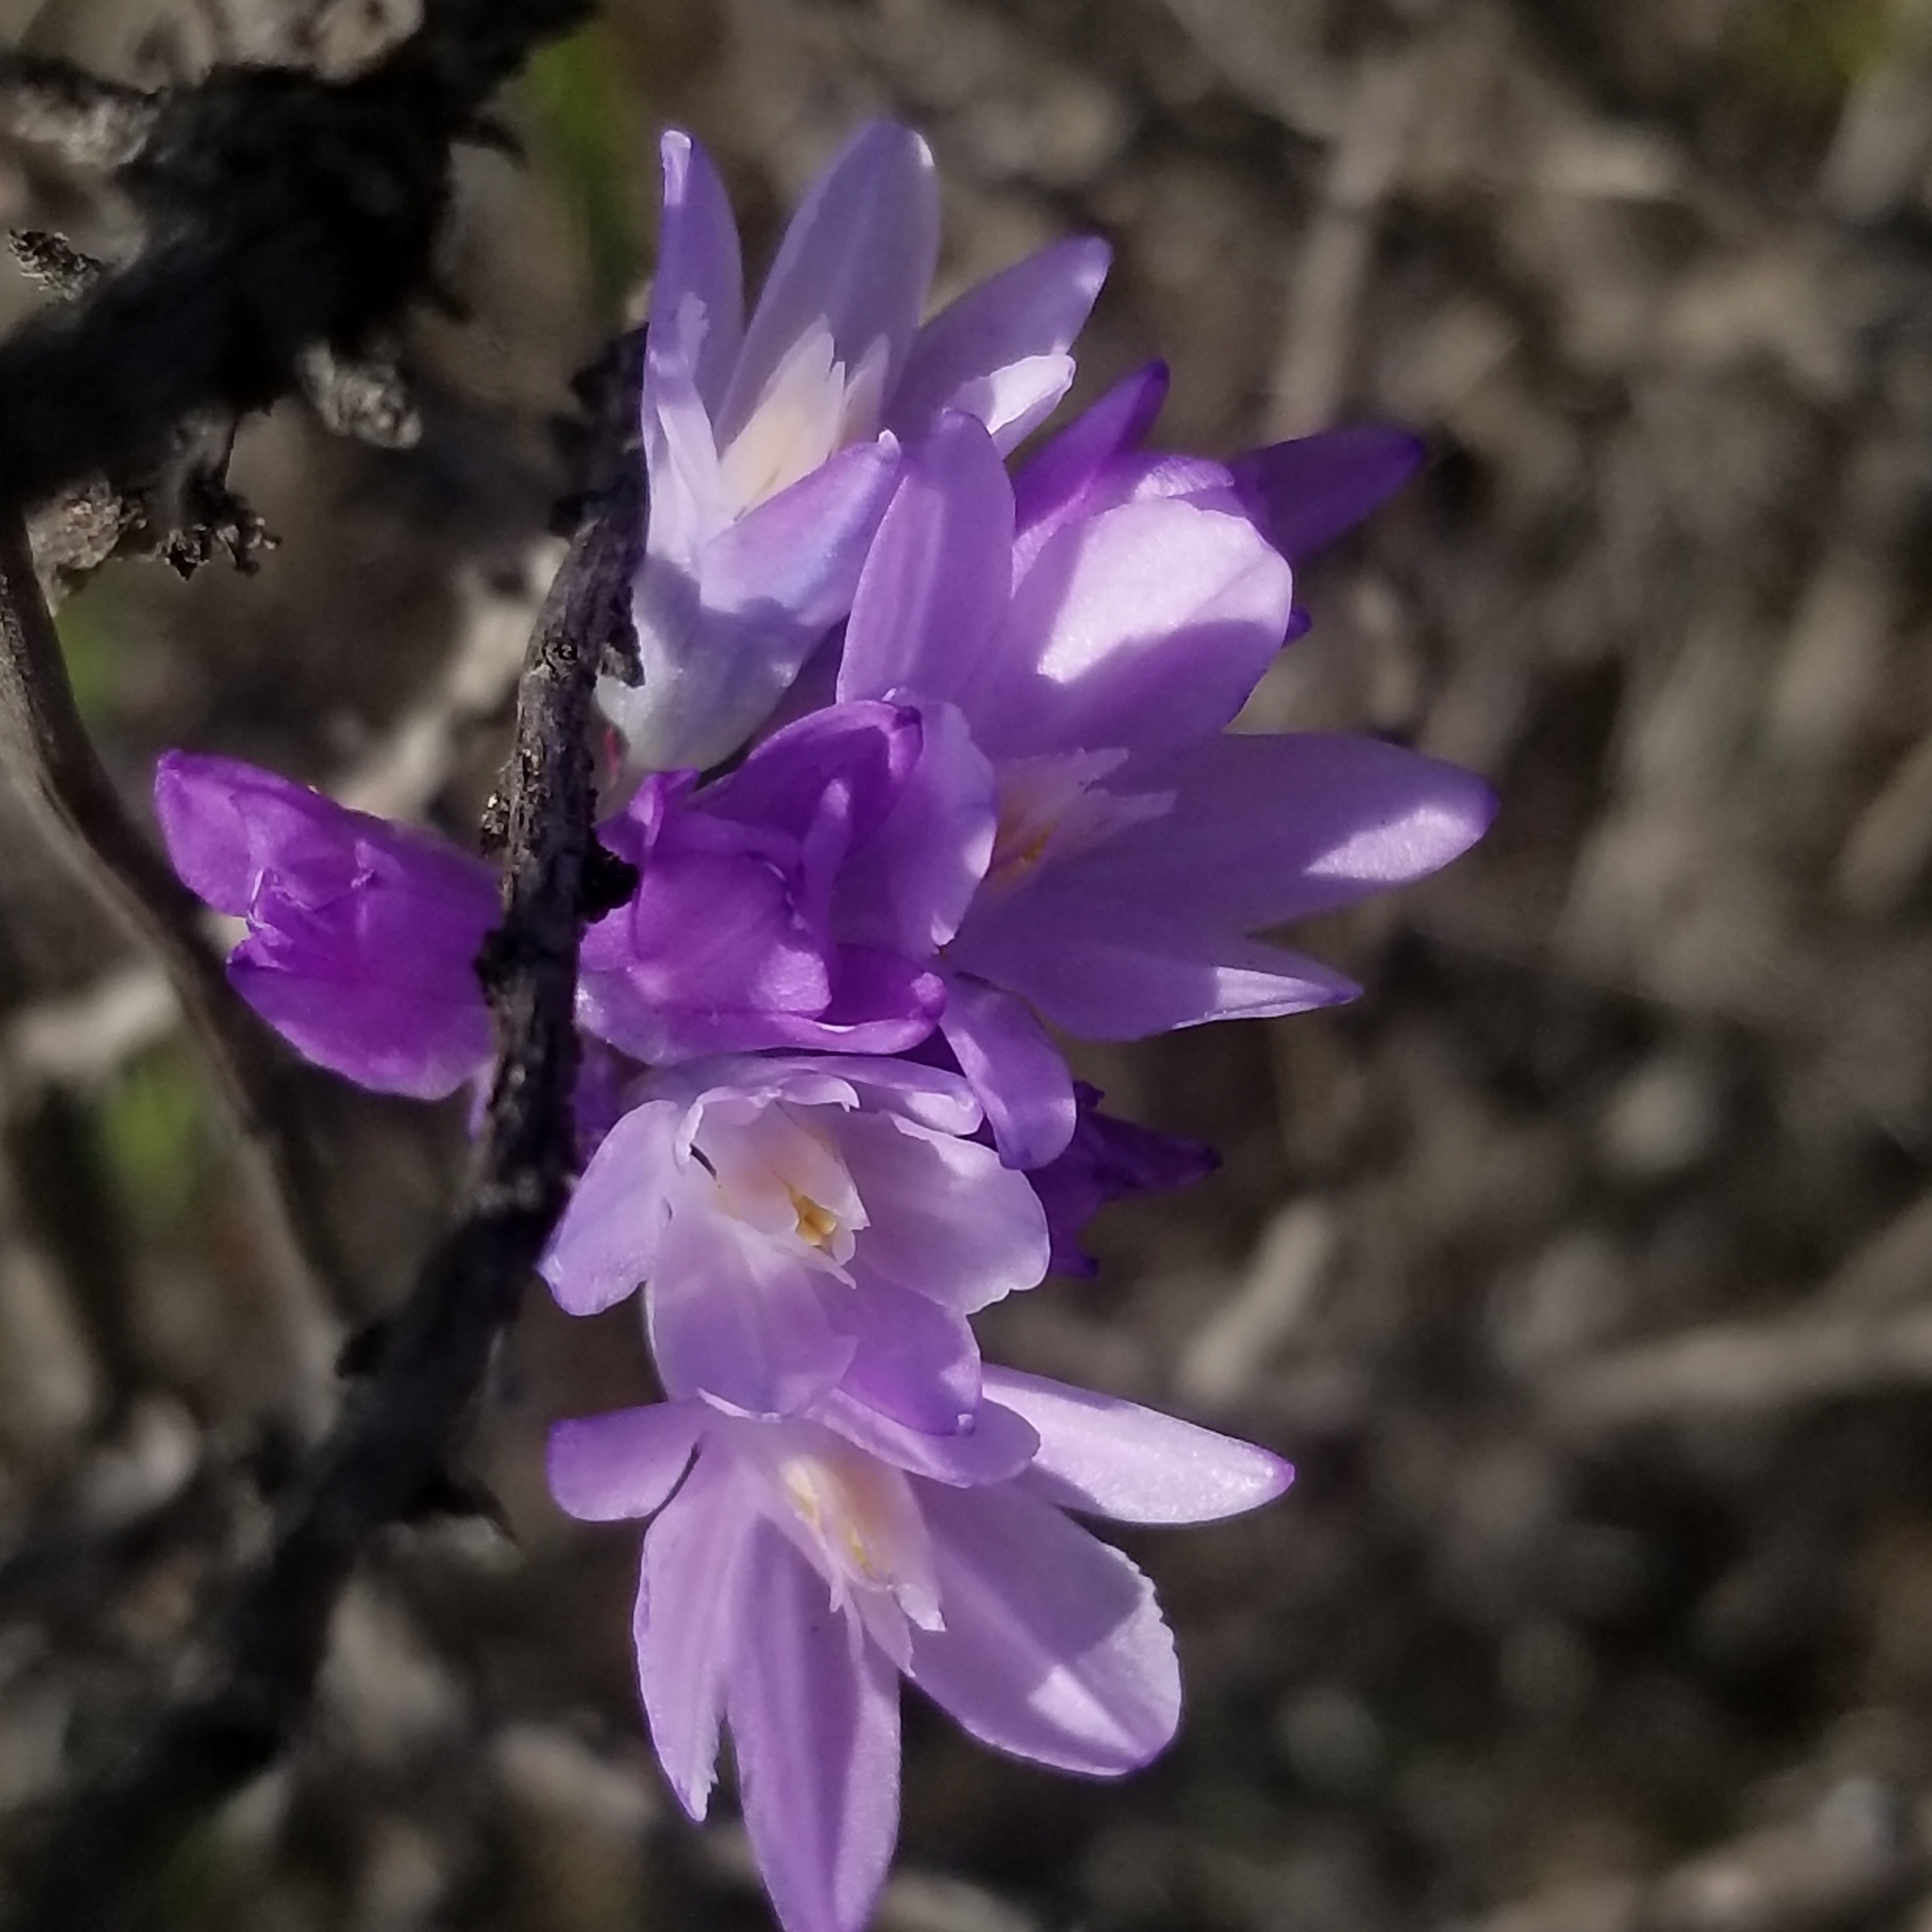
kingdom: Plantae
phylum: Tracheophyta
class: Liliopsida
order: Asparagales
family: Asparagaceae
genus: Dipterostemon
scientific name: Dipterostemon capitatus
